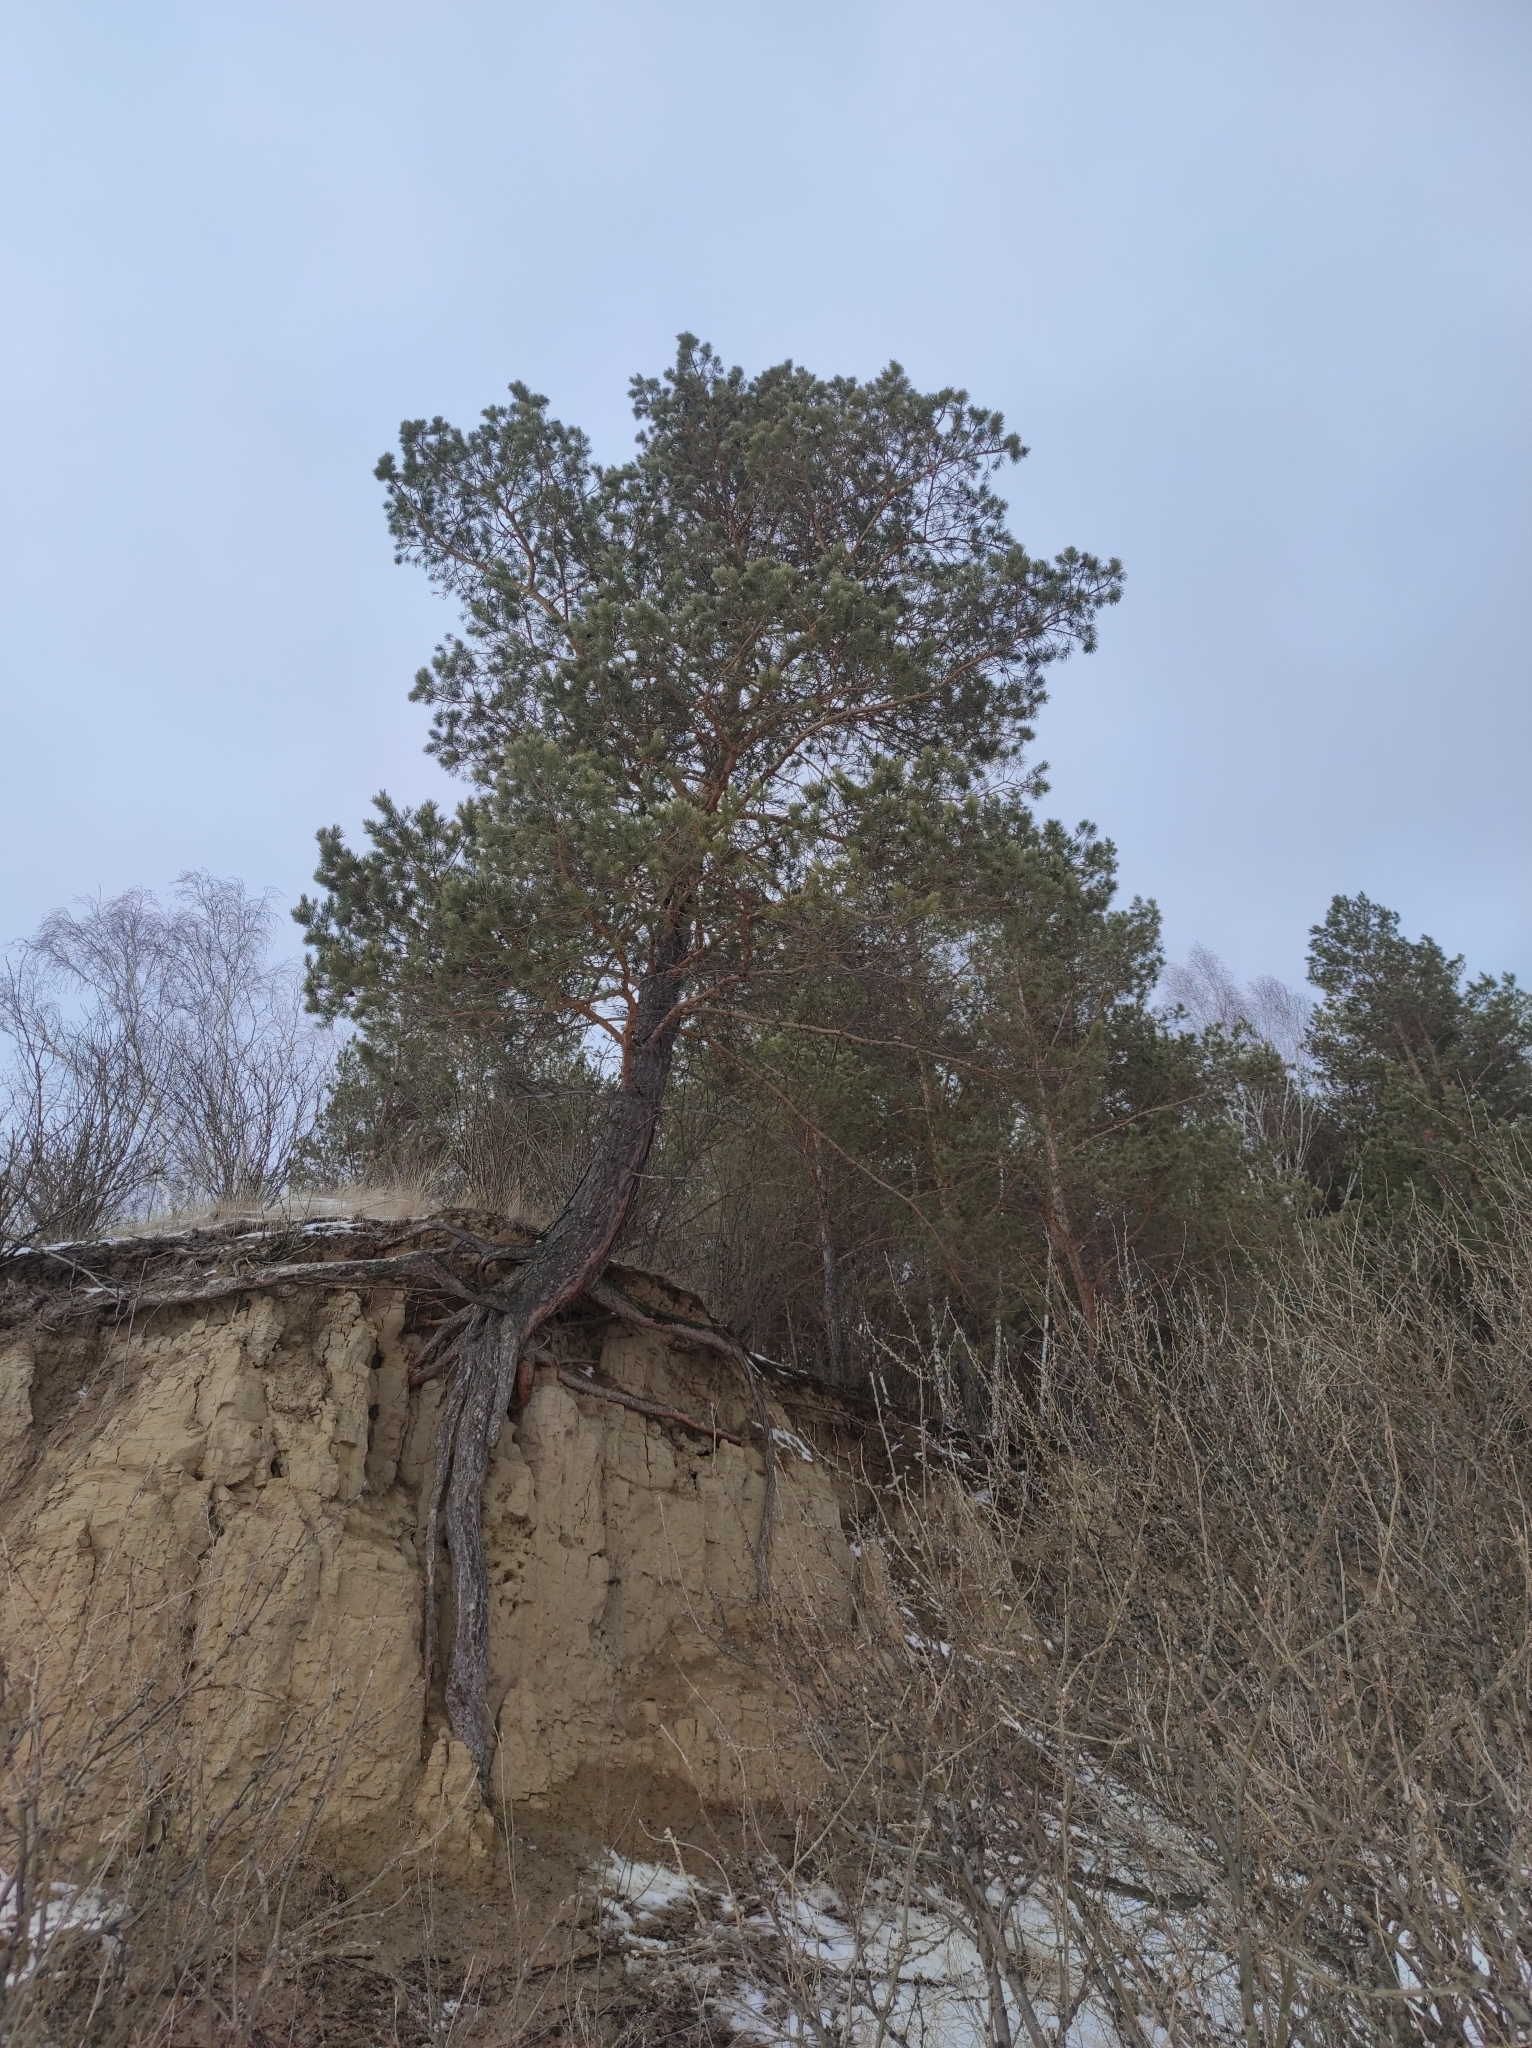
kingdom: Plantae
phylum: Tracheophyta
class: Pinopsida
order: Pinales
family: Pinaceae
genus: Pinus
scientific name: Pinus sylvestris
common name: Scots pine
